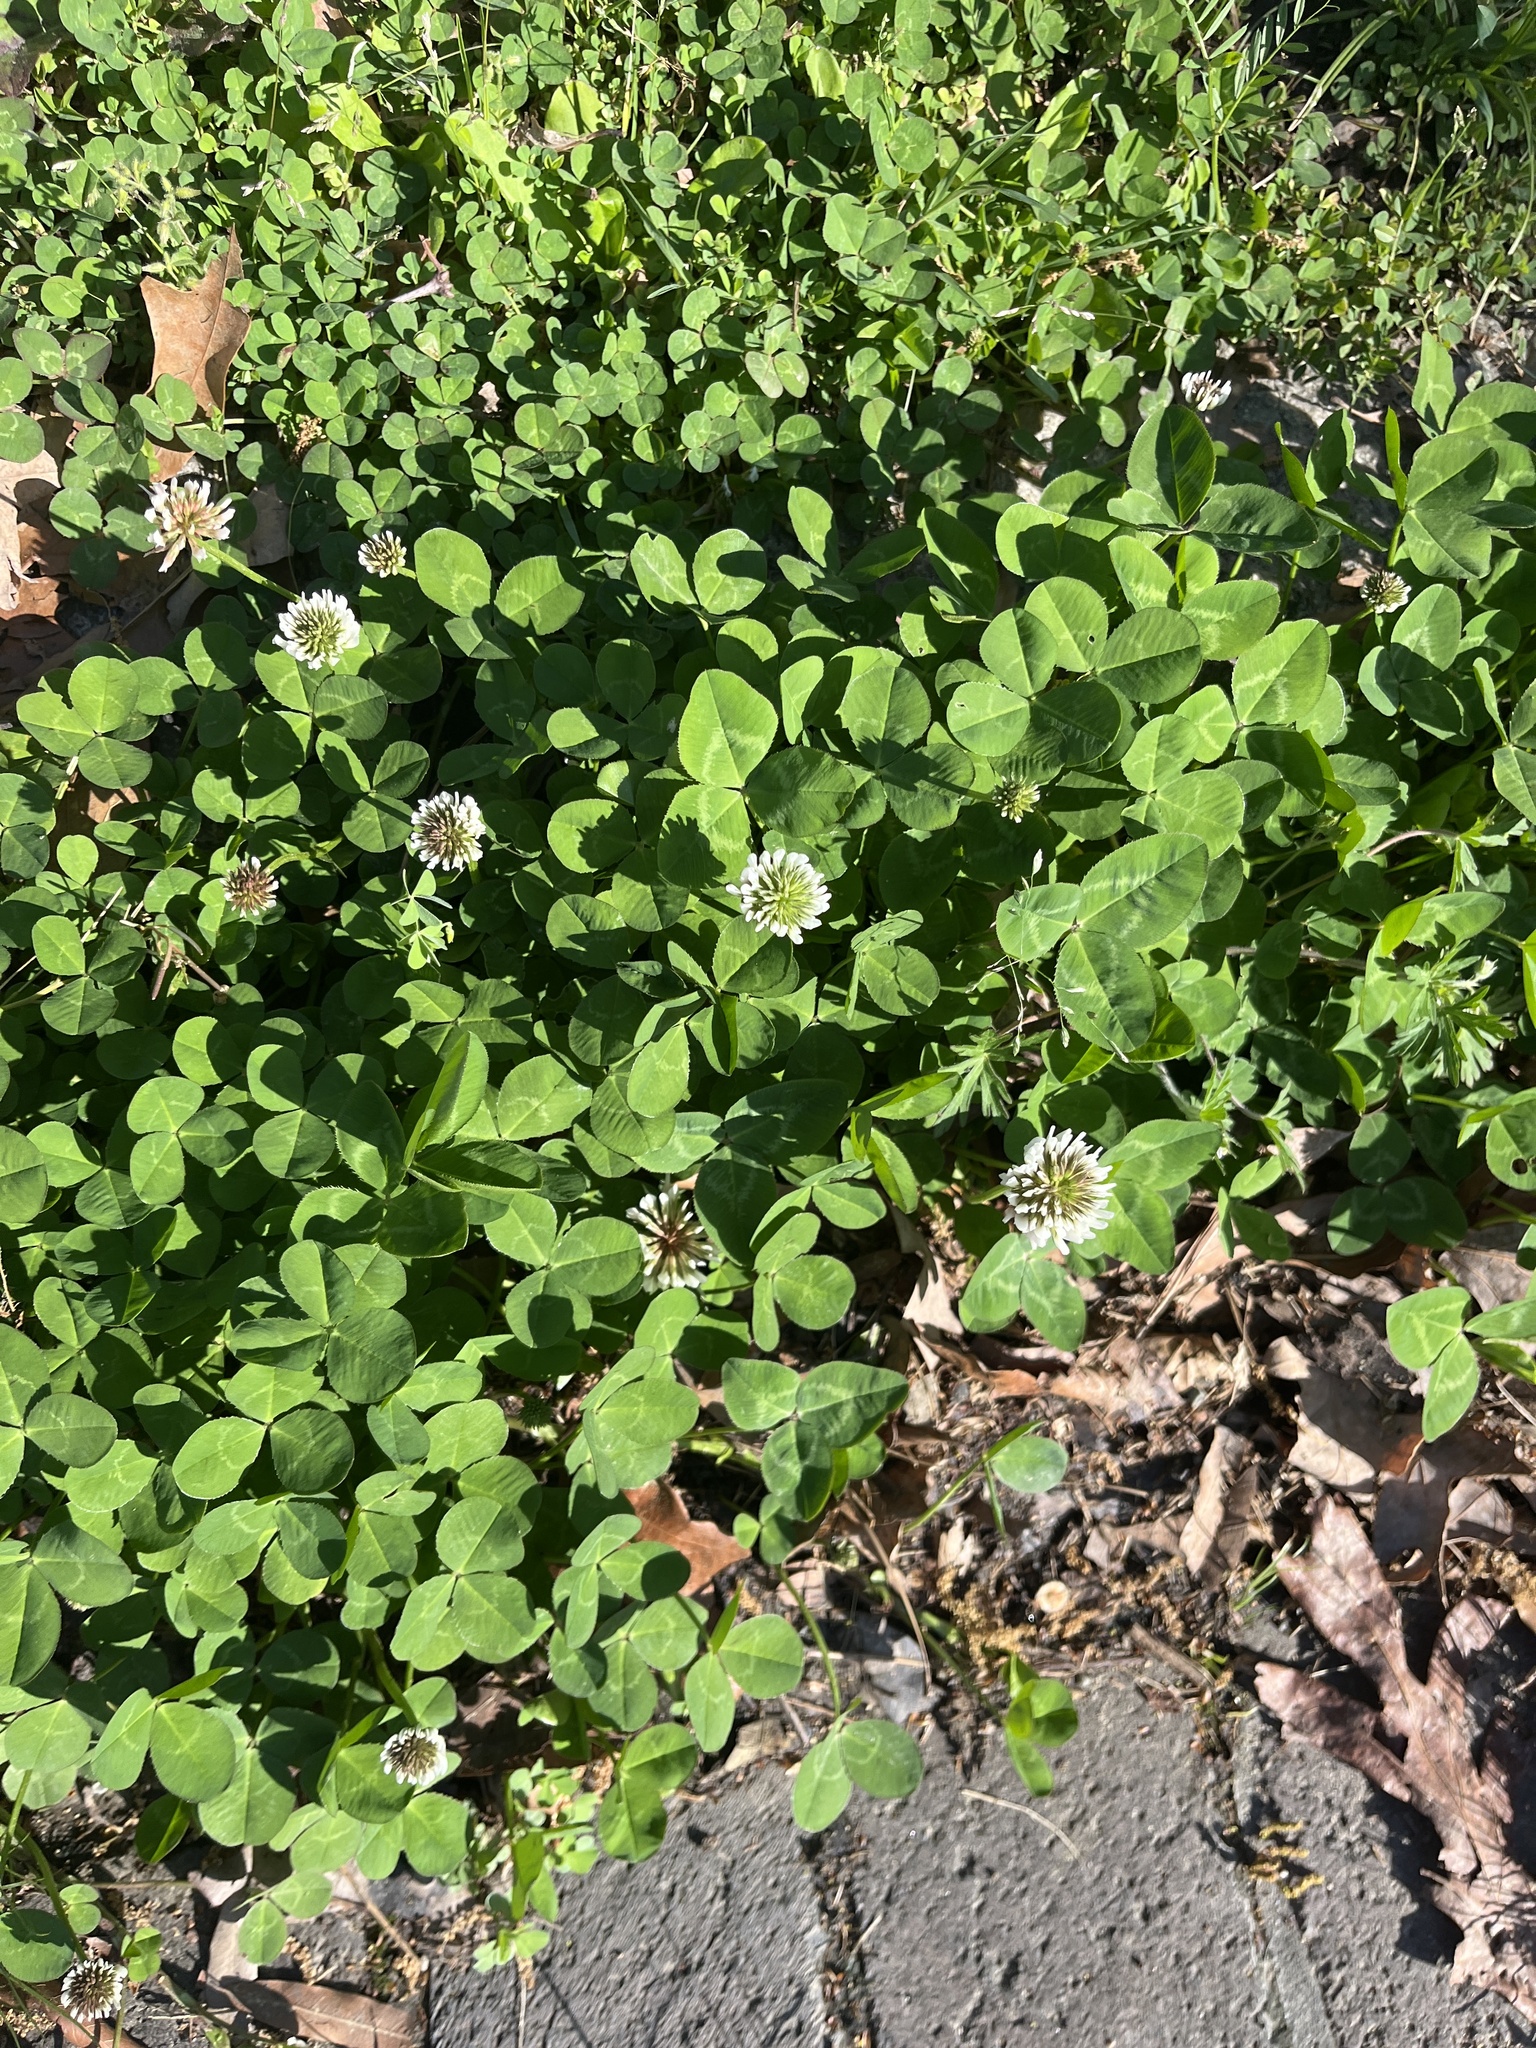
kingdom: Plantae
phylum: Tracheophyta
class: Magnoliopsida
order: Fabales
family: Fabaceae
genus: Trifolium
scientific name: Trifolium repens
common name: White clover
